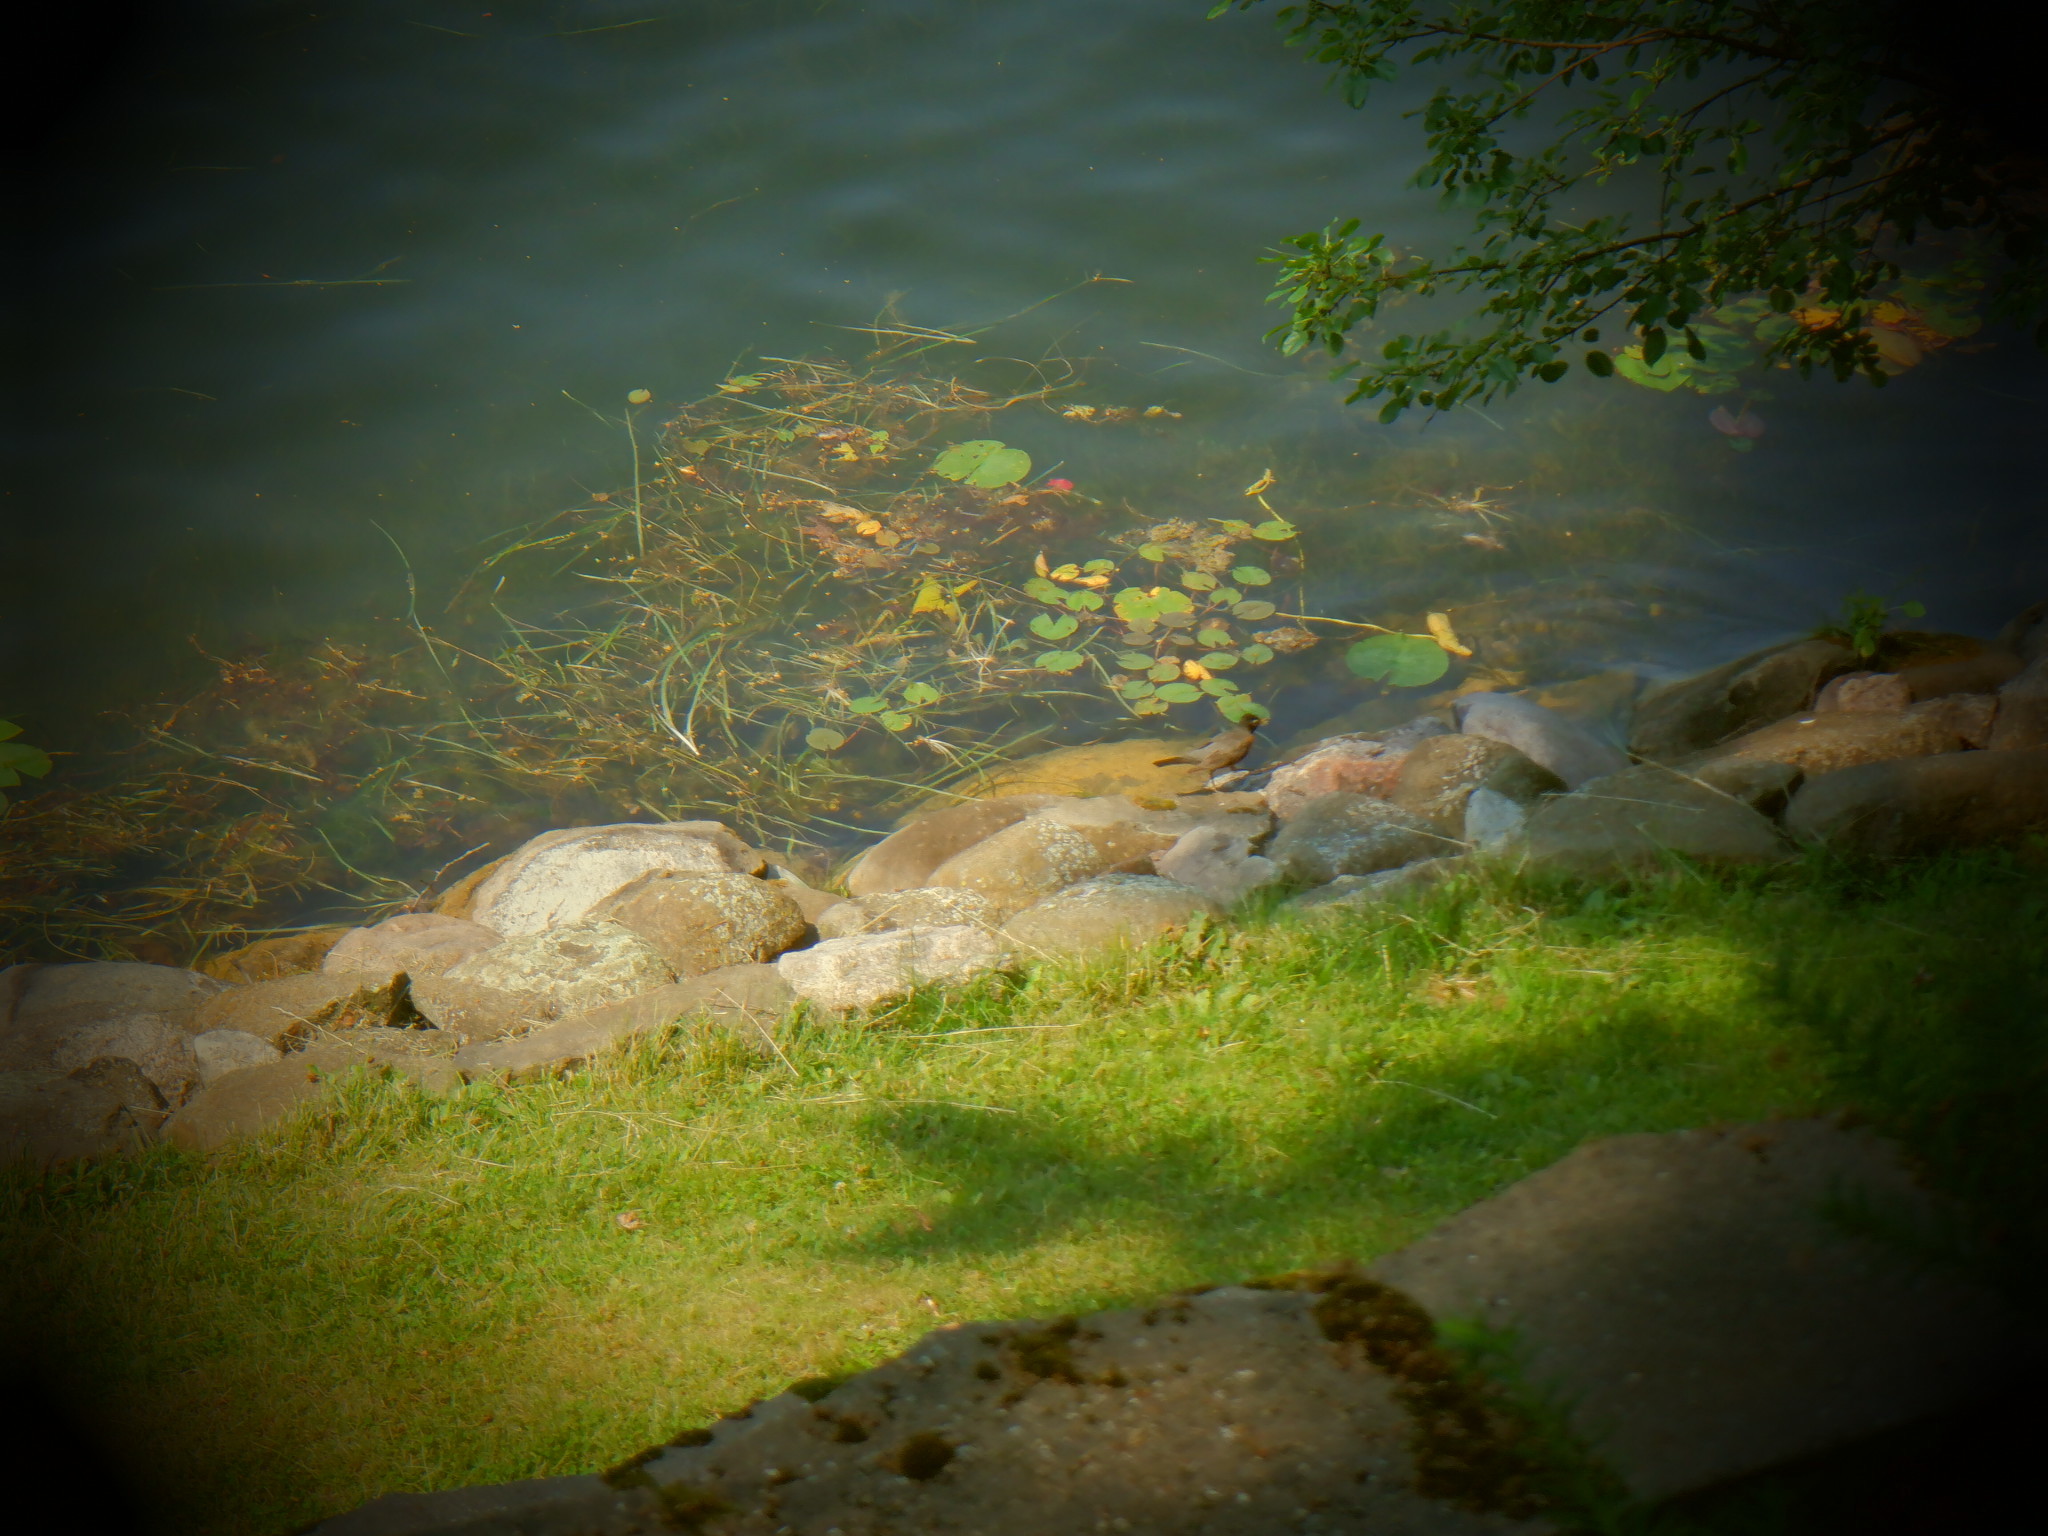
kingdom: Animalia
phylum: Chordata
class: Aves
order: Passeriformes
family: Turdidae
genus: Turdus
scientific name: Turdus migratorius
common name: American robin
